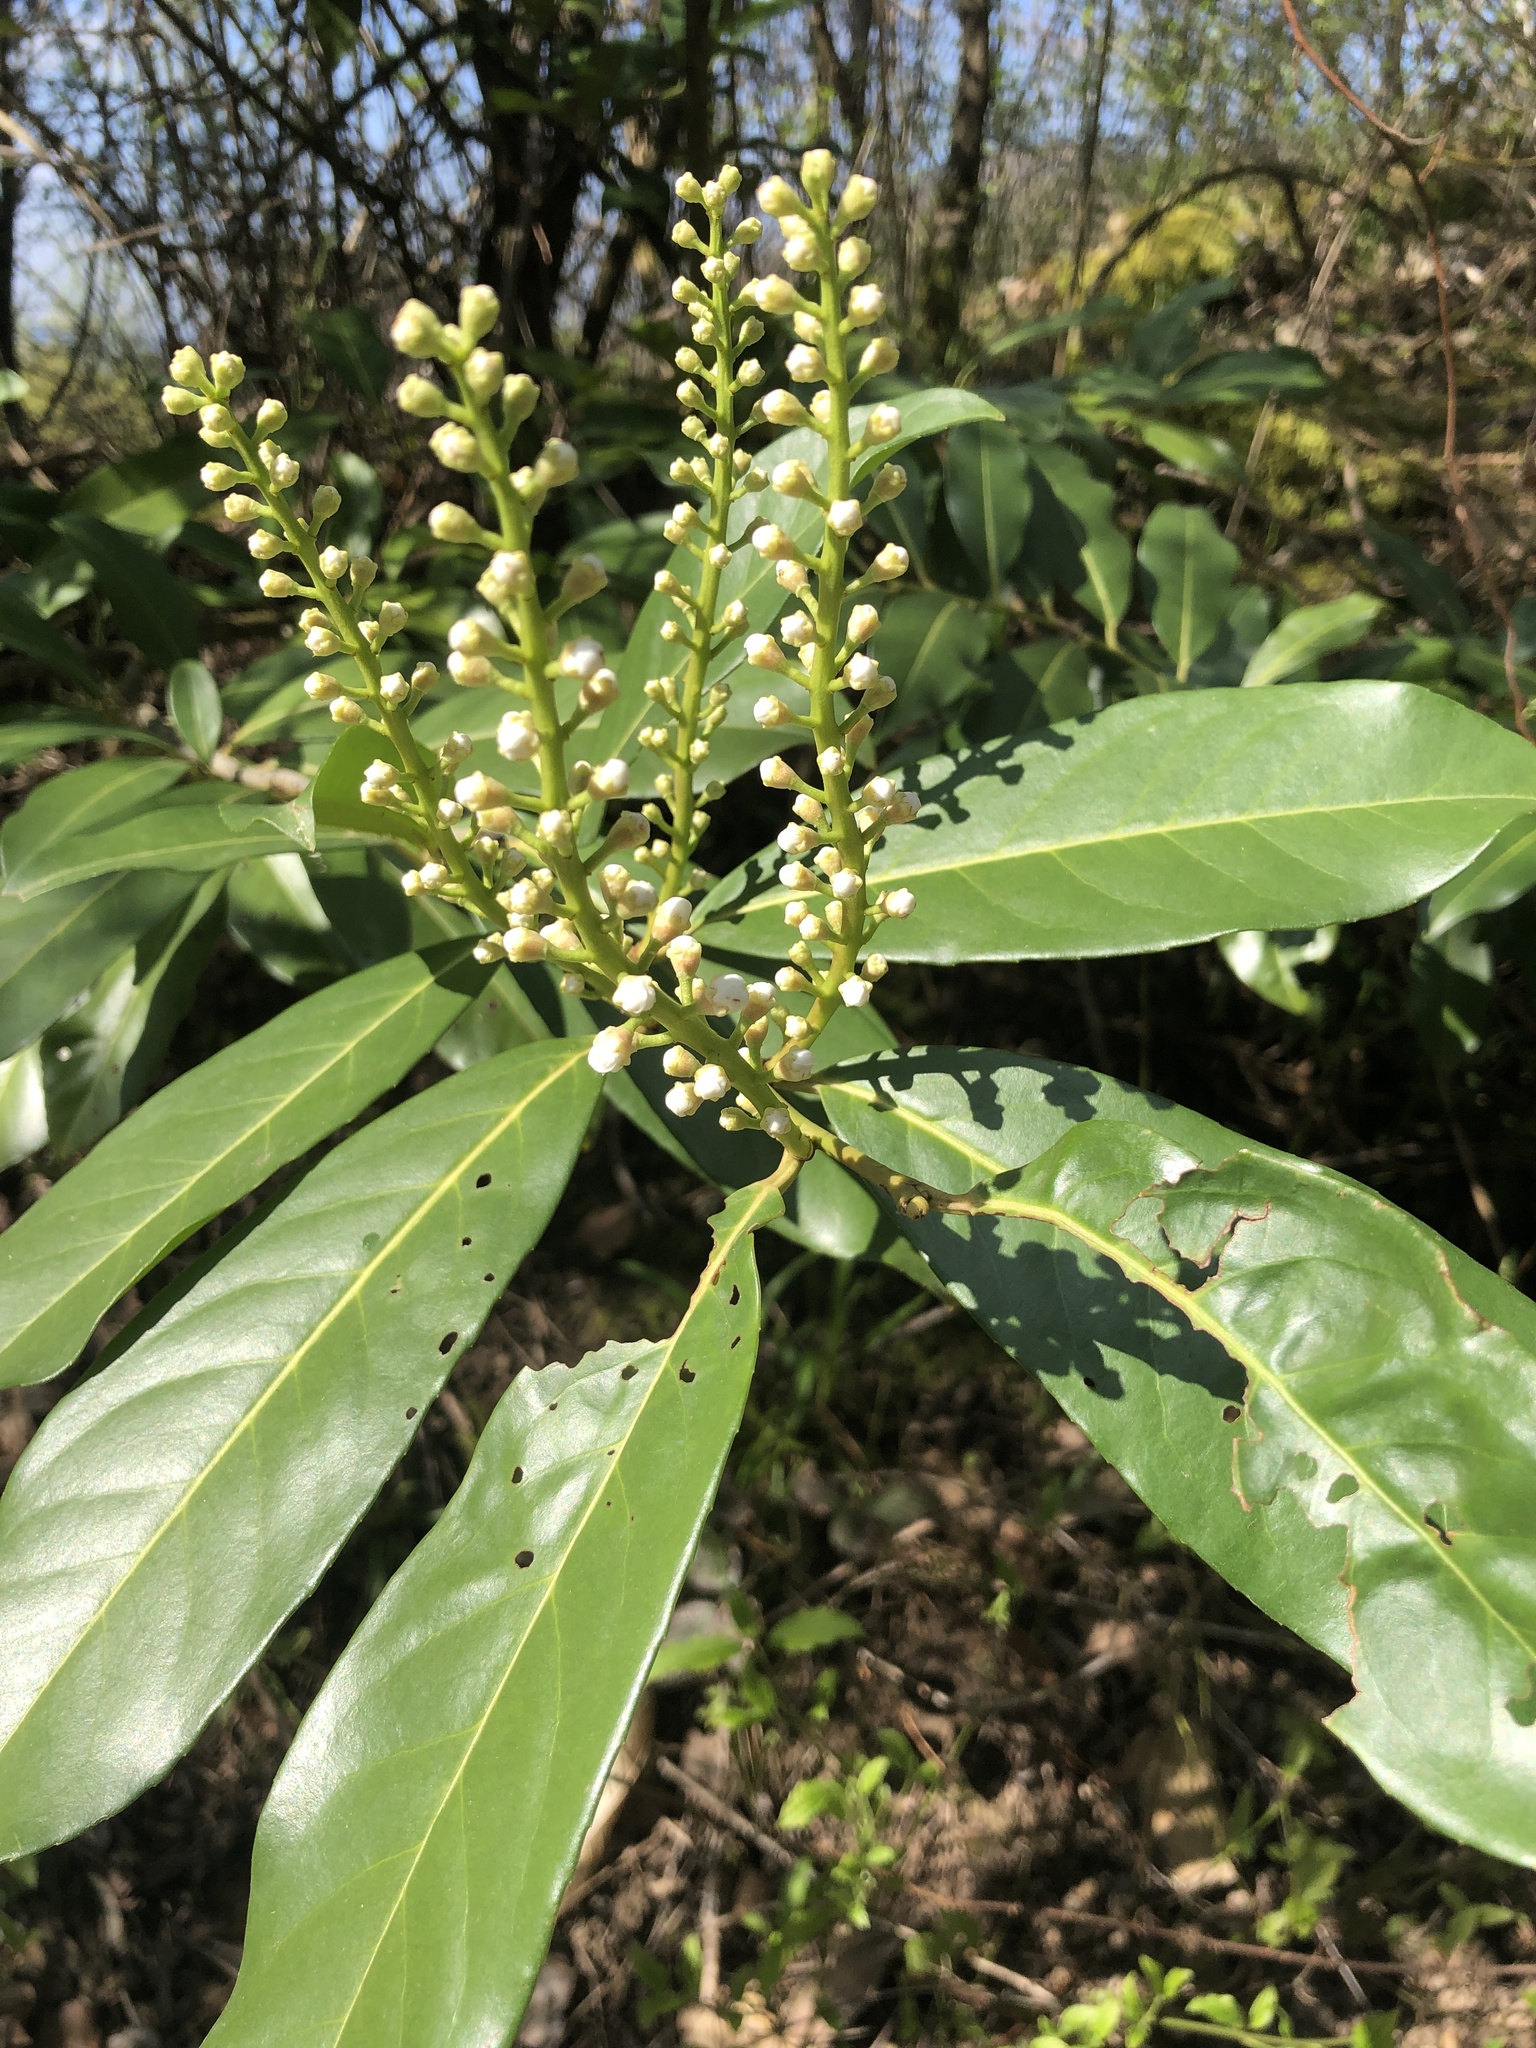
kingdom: Plantae
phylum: Tracheophyta
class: Magnoliopsida
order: Rosales
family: Rosaceae
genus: Prunus
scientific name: Prunus laurocerasus
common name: Cherry laurel
